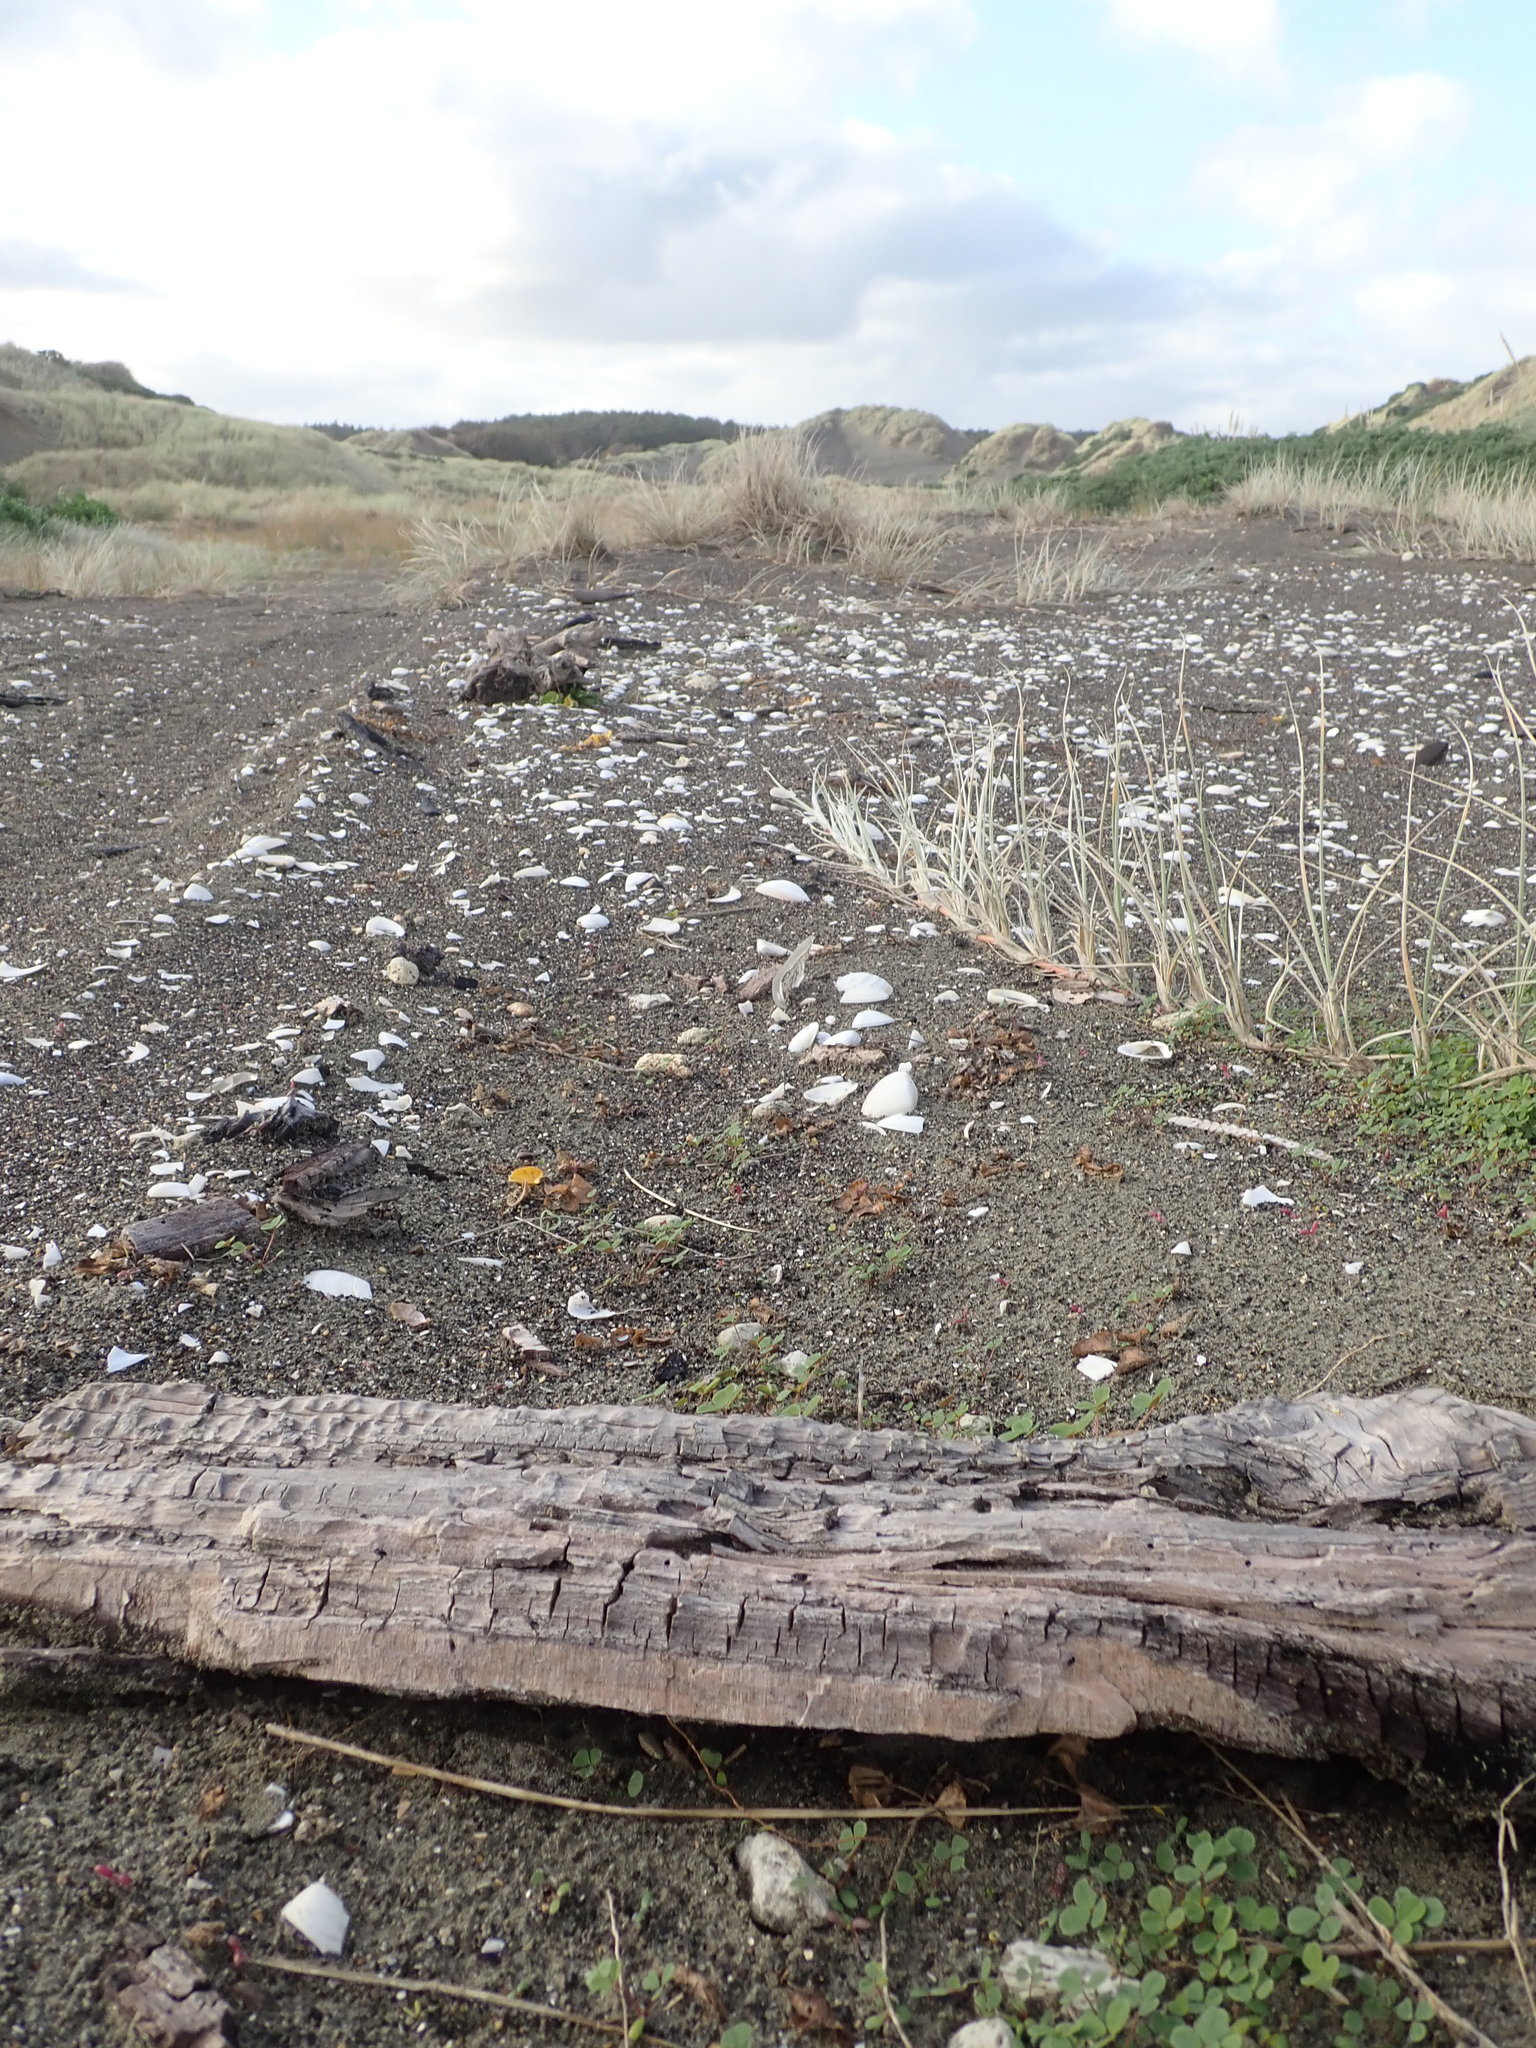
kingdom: Animalia
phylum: Arthropoda
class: Malacostraca
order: Isopoda
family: Porcellionidae
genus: Porcellio
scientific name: Porcellio scaber
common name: Common rough woodlouse
